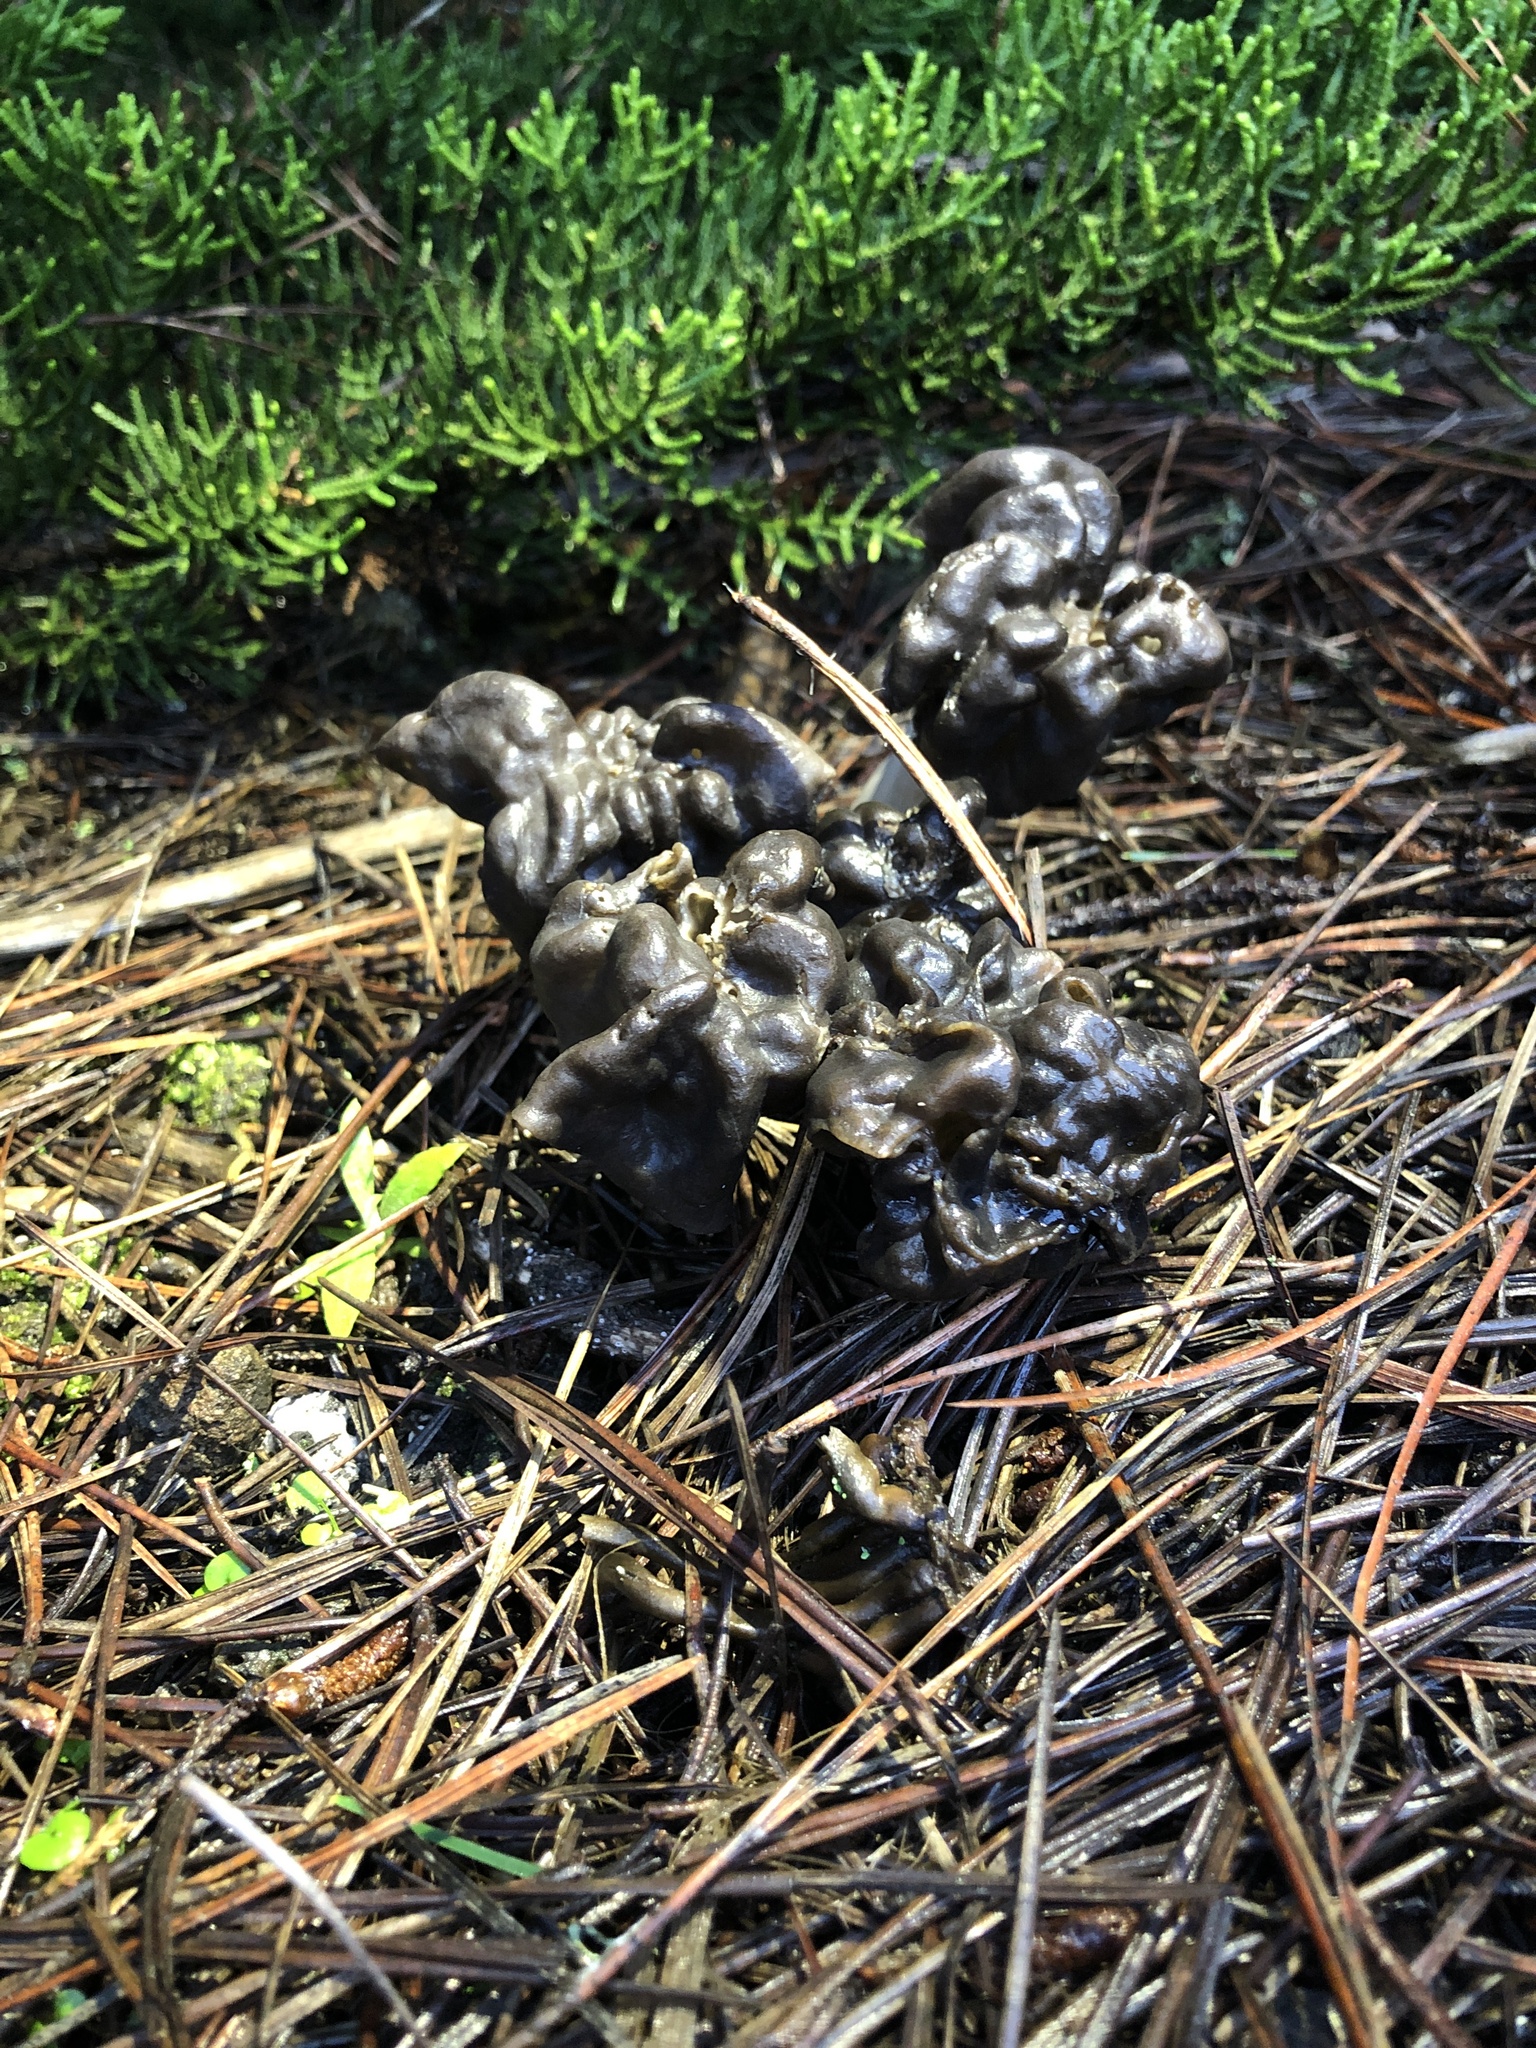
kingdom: Fungi
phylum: Ascomycota
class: Pezizomycetes
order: Pezizales
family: Helvellaceae
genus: Helvella
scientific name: Helvella vespertina
